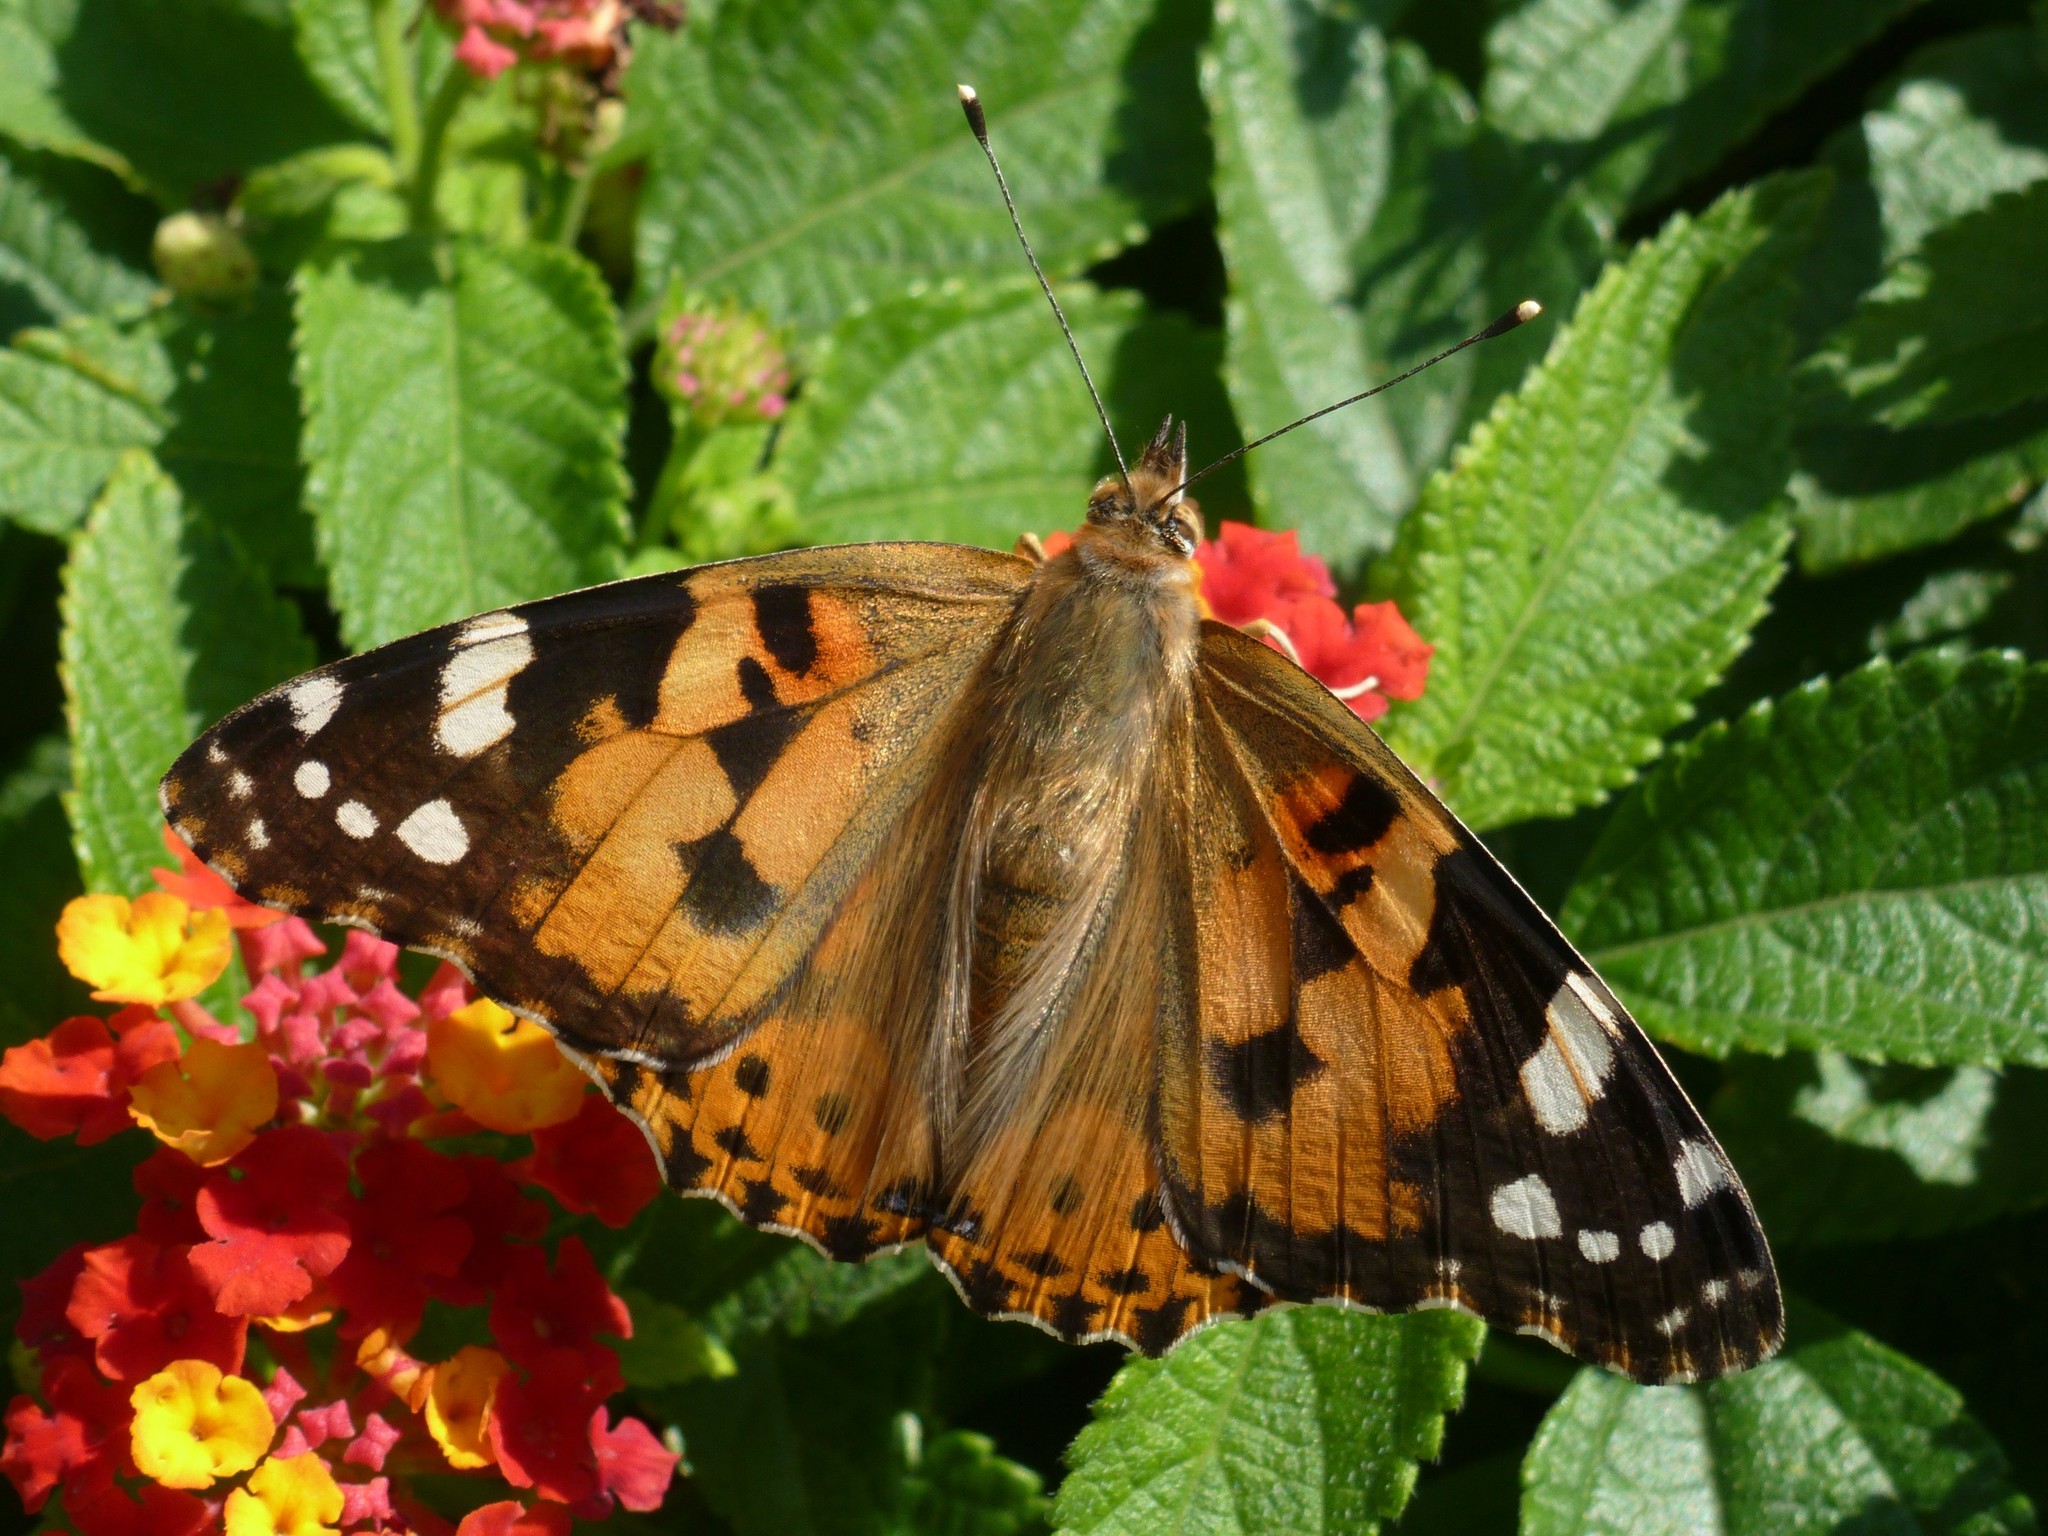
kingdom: Animalia
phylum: Arthropoda
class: Insecta
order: Lepidoptera
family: Nymphalidae
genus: Vanessa
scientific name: Vanessa cardui
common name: Painted lady
